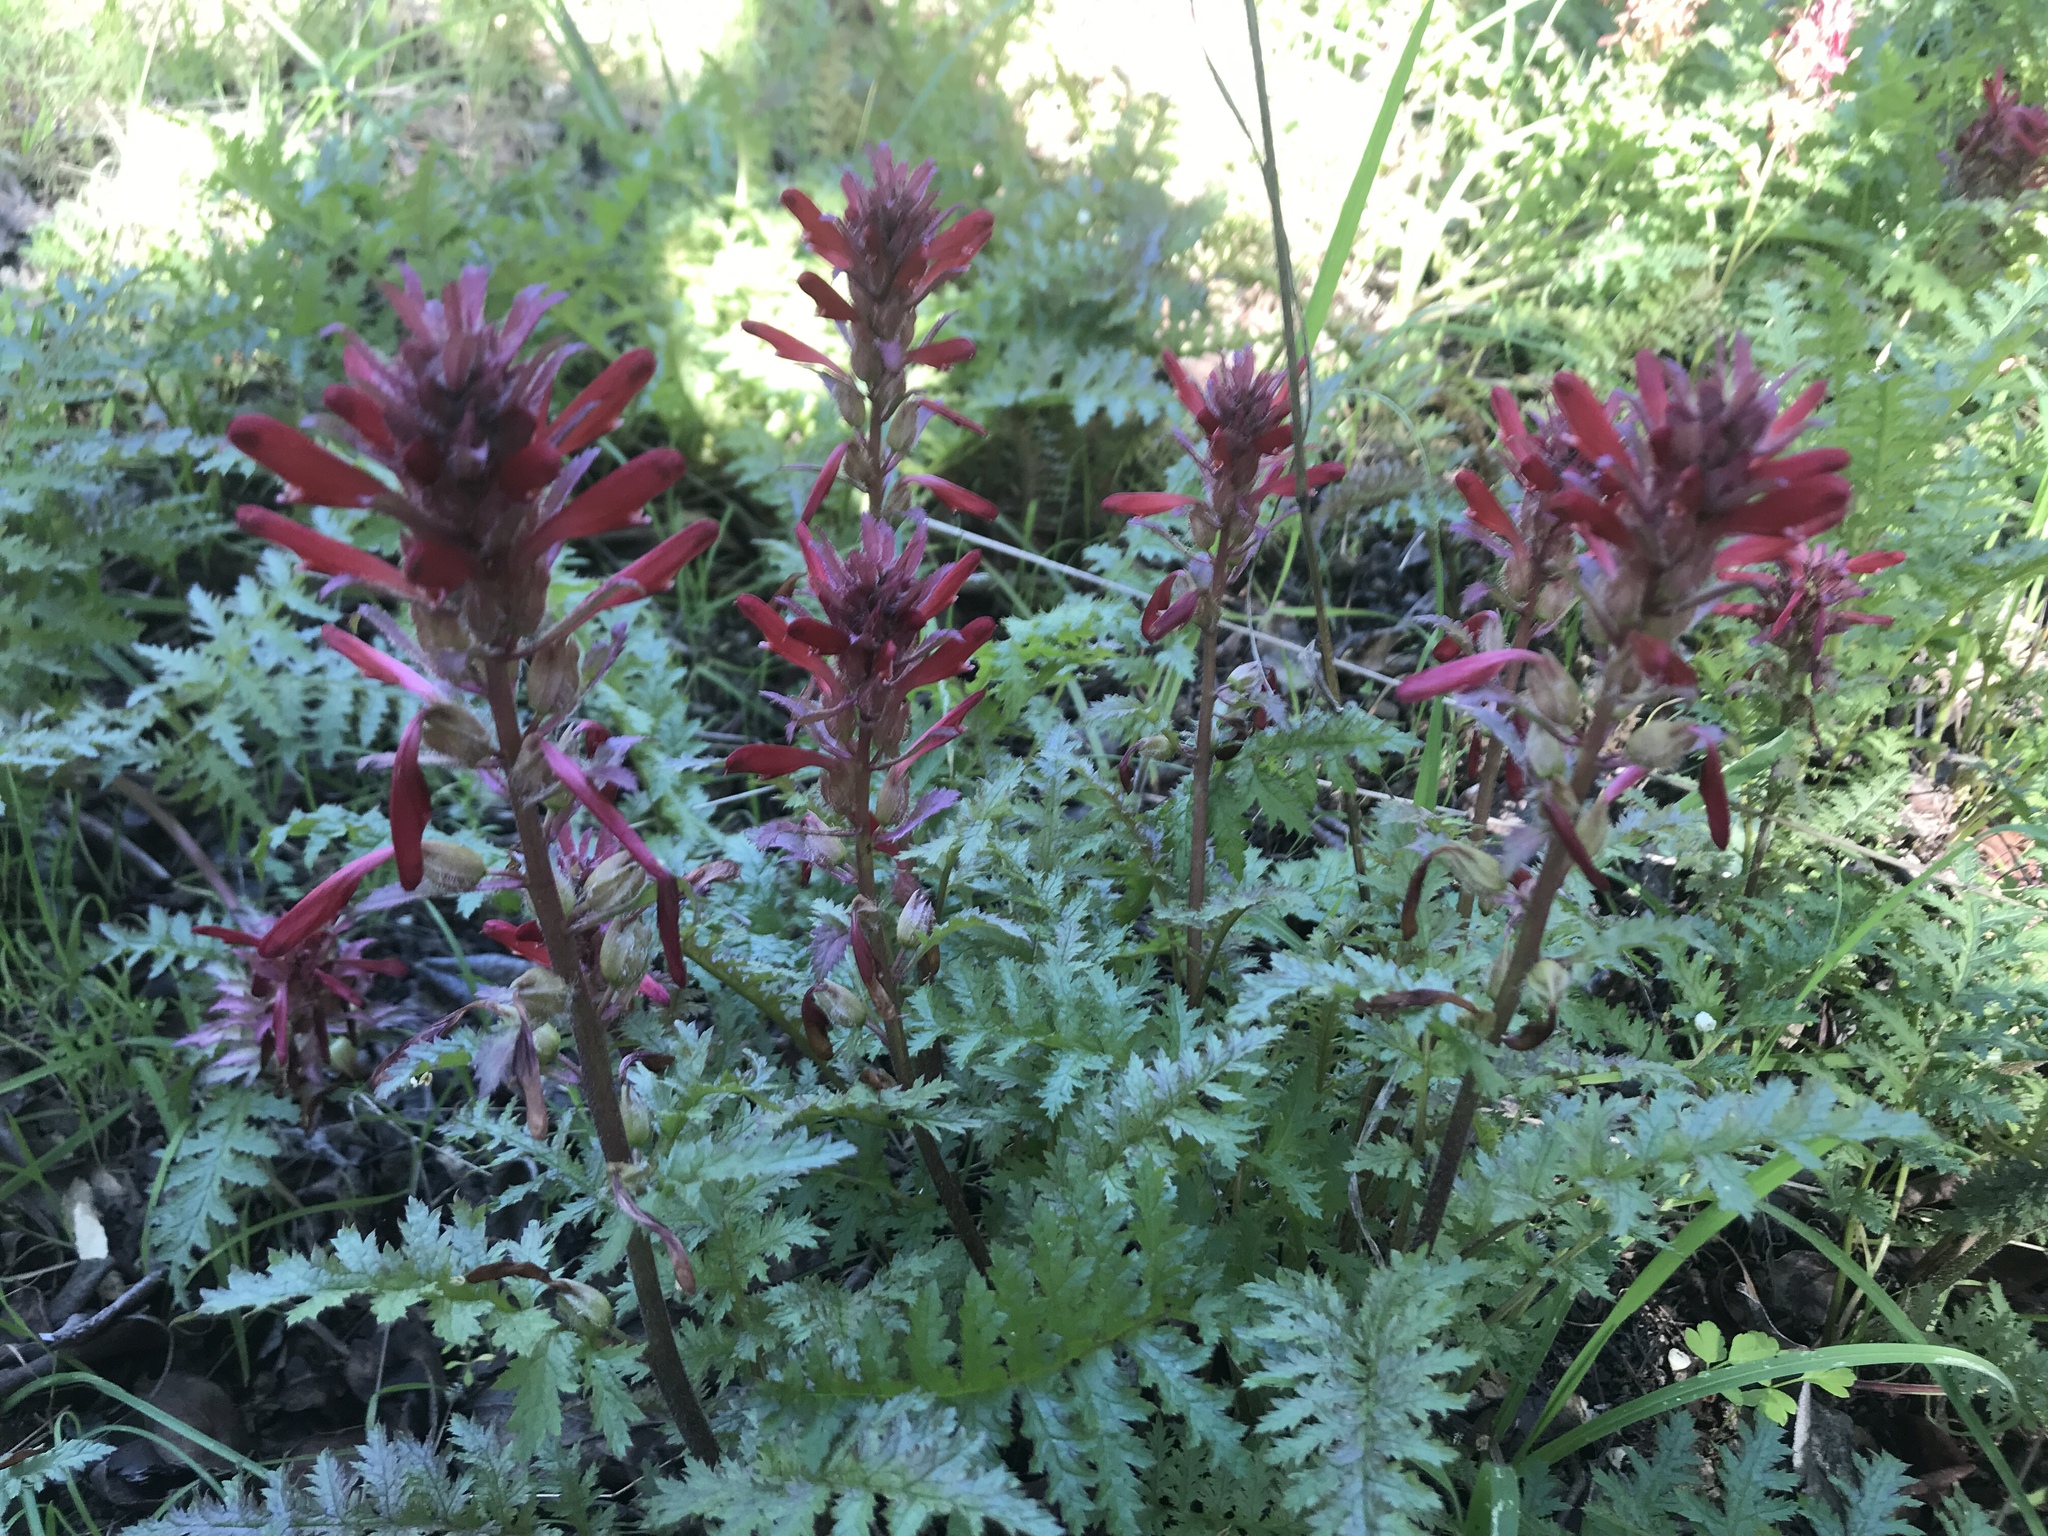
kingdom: Plantae
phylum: Tracheophyta
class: Magnoliopsida
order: Lamiales
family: Orobanchaceae
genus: Pedicularis
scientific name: Pedicularis densiflora
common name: Indian warrior
